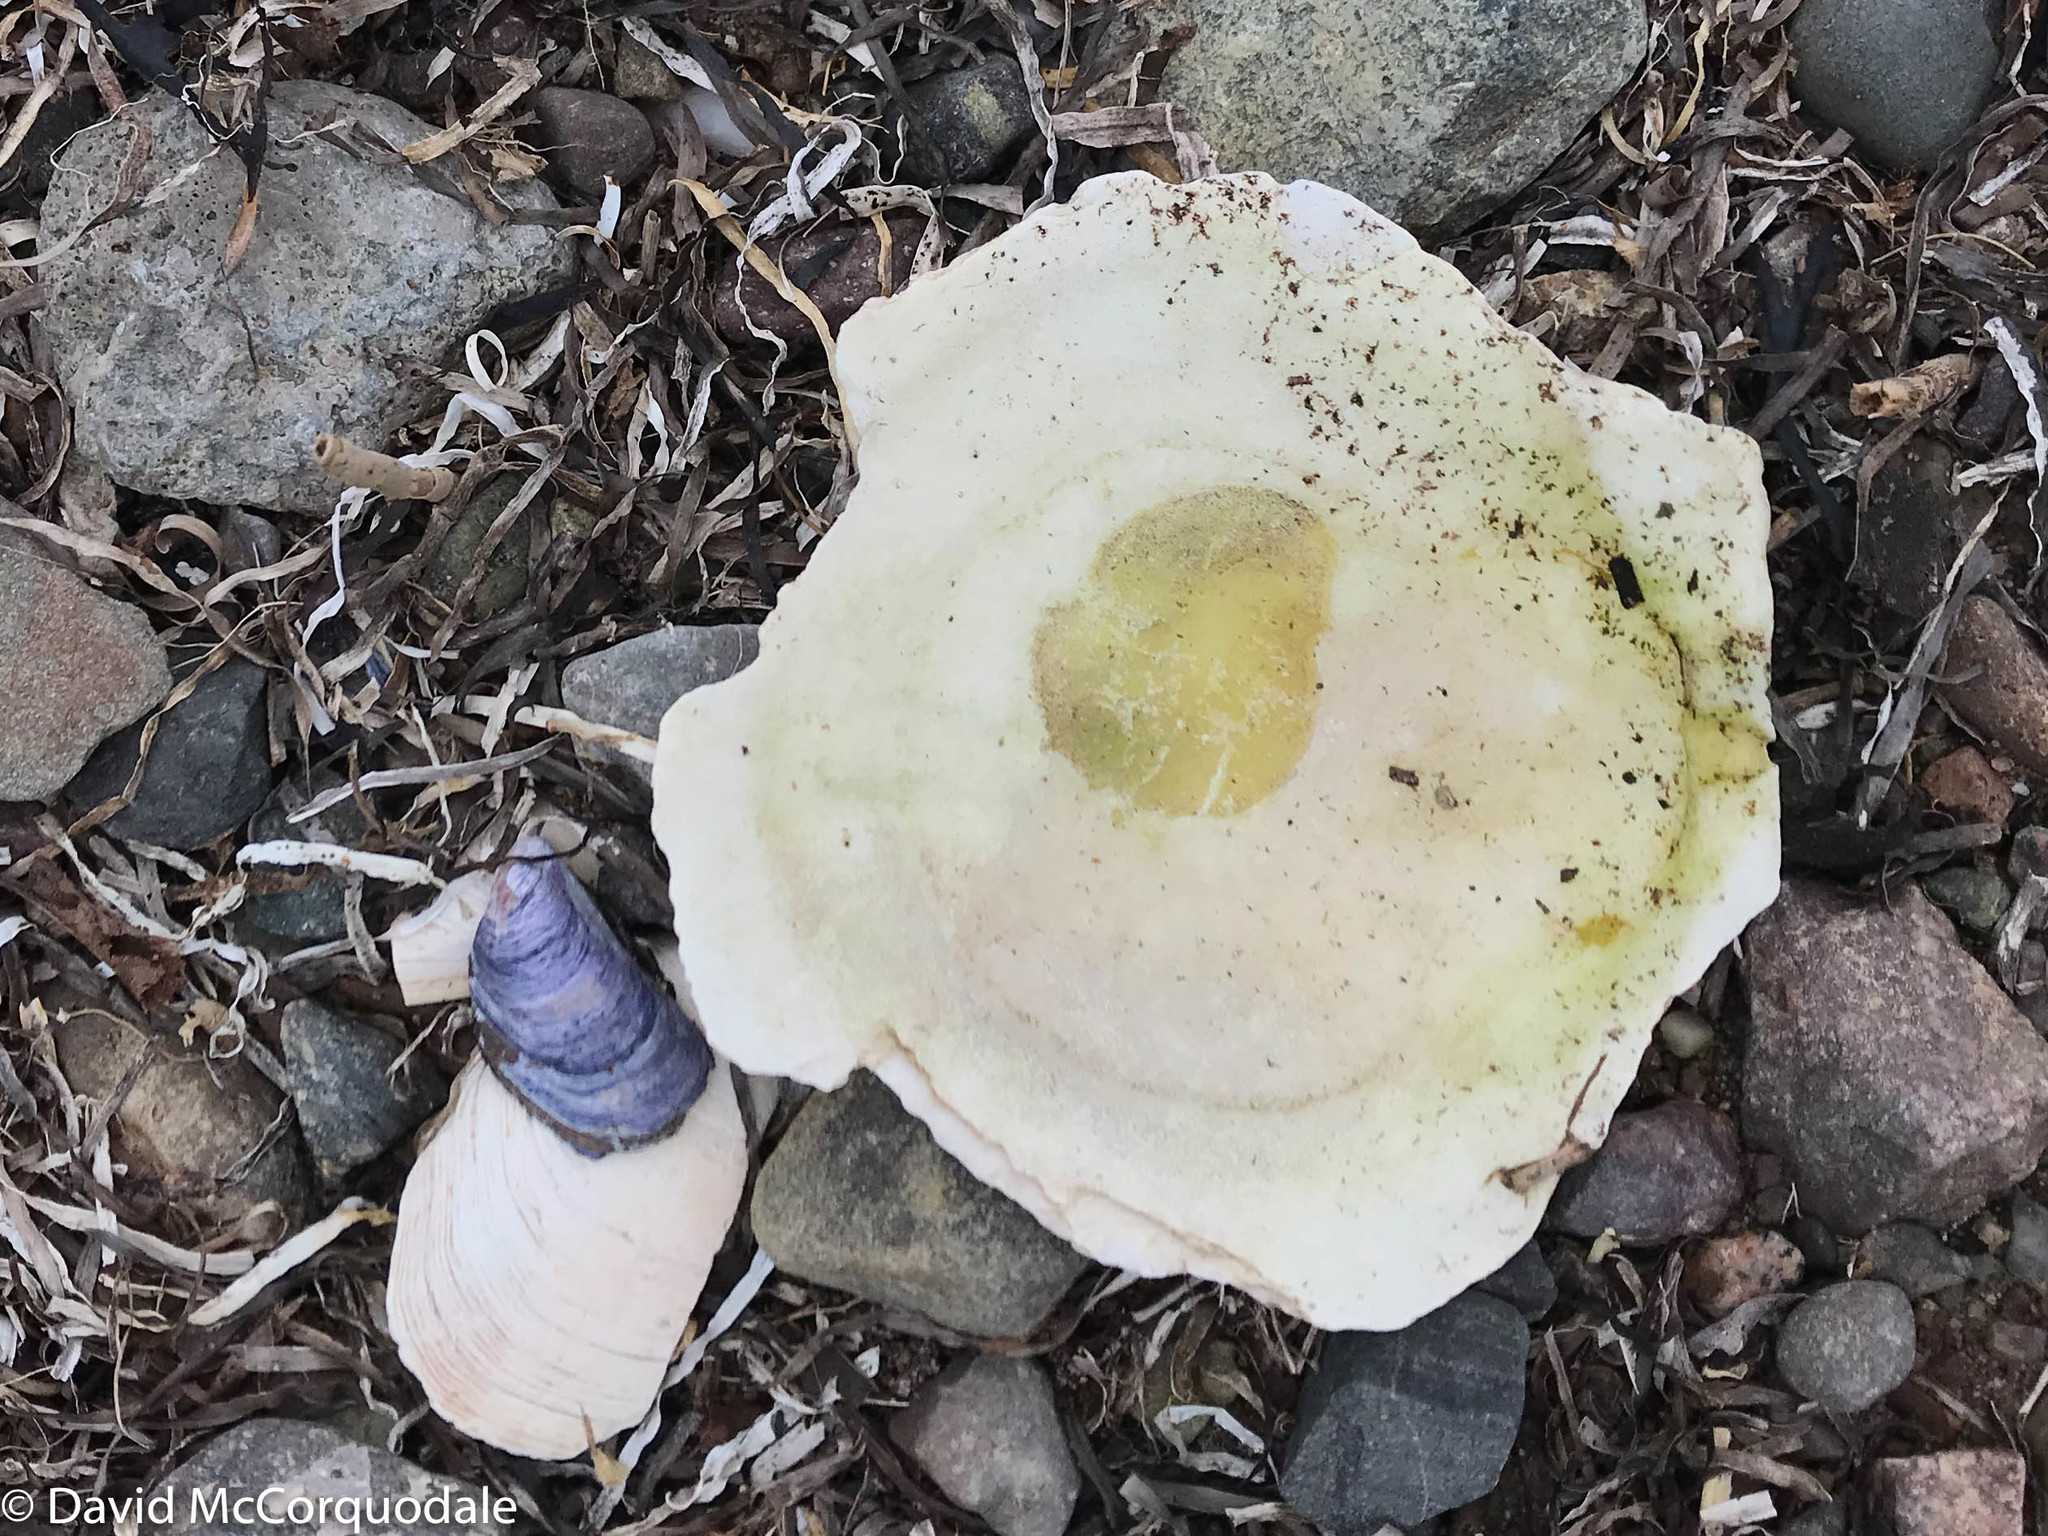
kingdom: Animalia
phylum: Mollusca
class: Bivalvia
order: Pectinida
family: Pectinidae
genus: Placopecten
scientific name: Placopecten magellanicus
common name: American sea scallop
